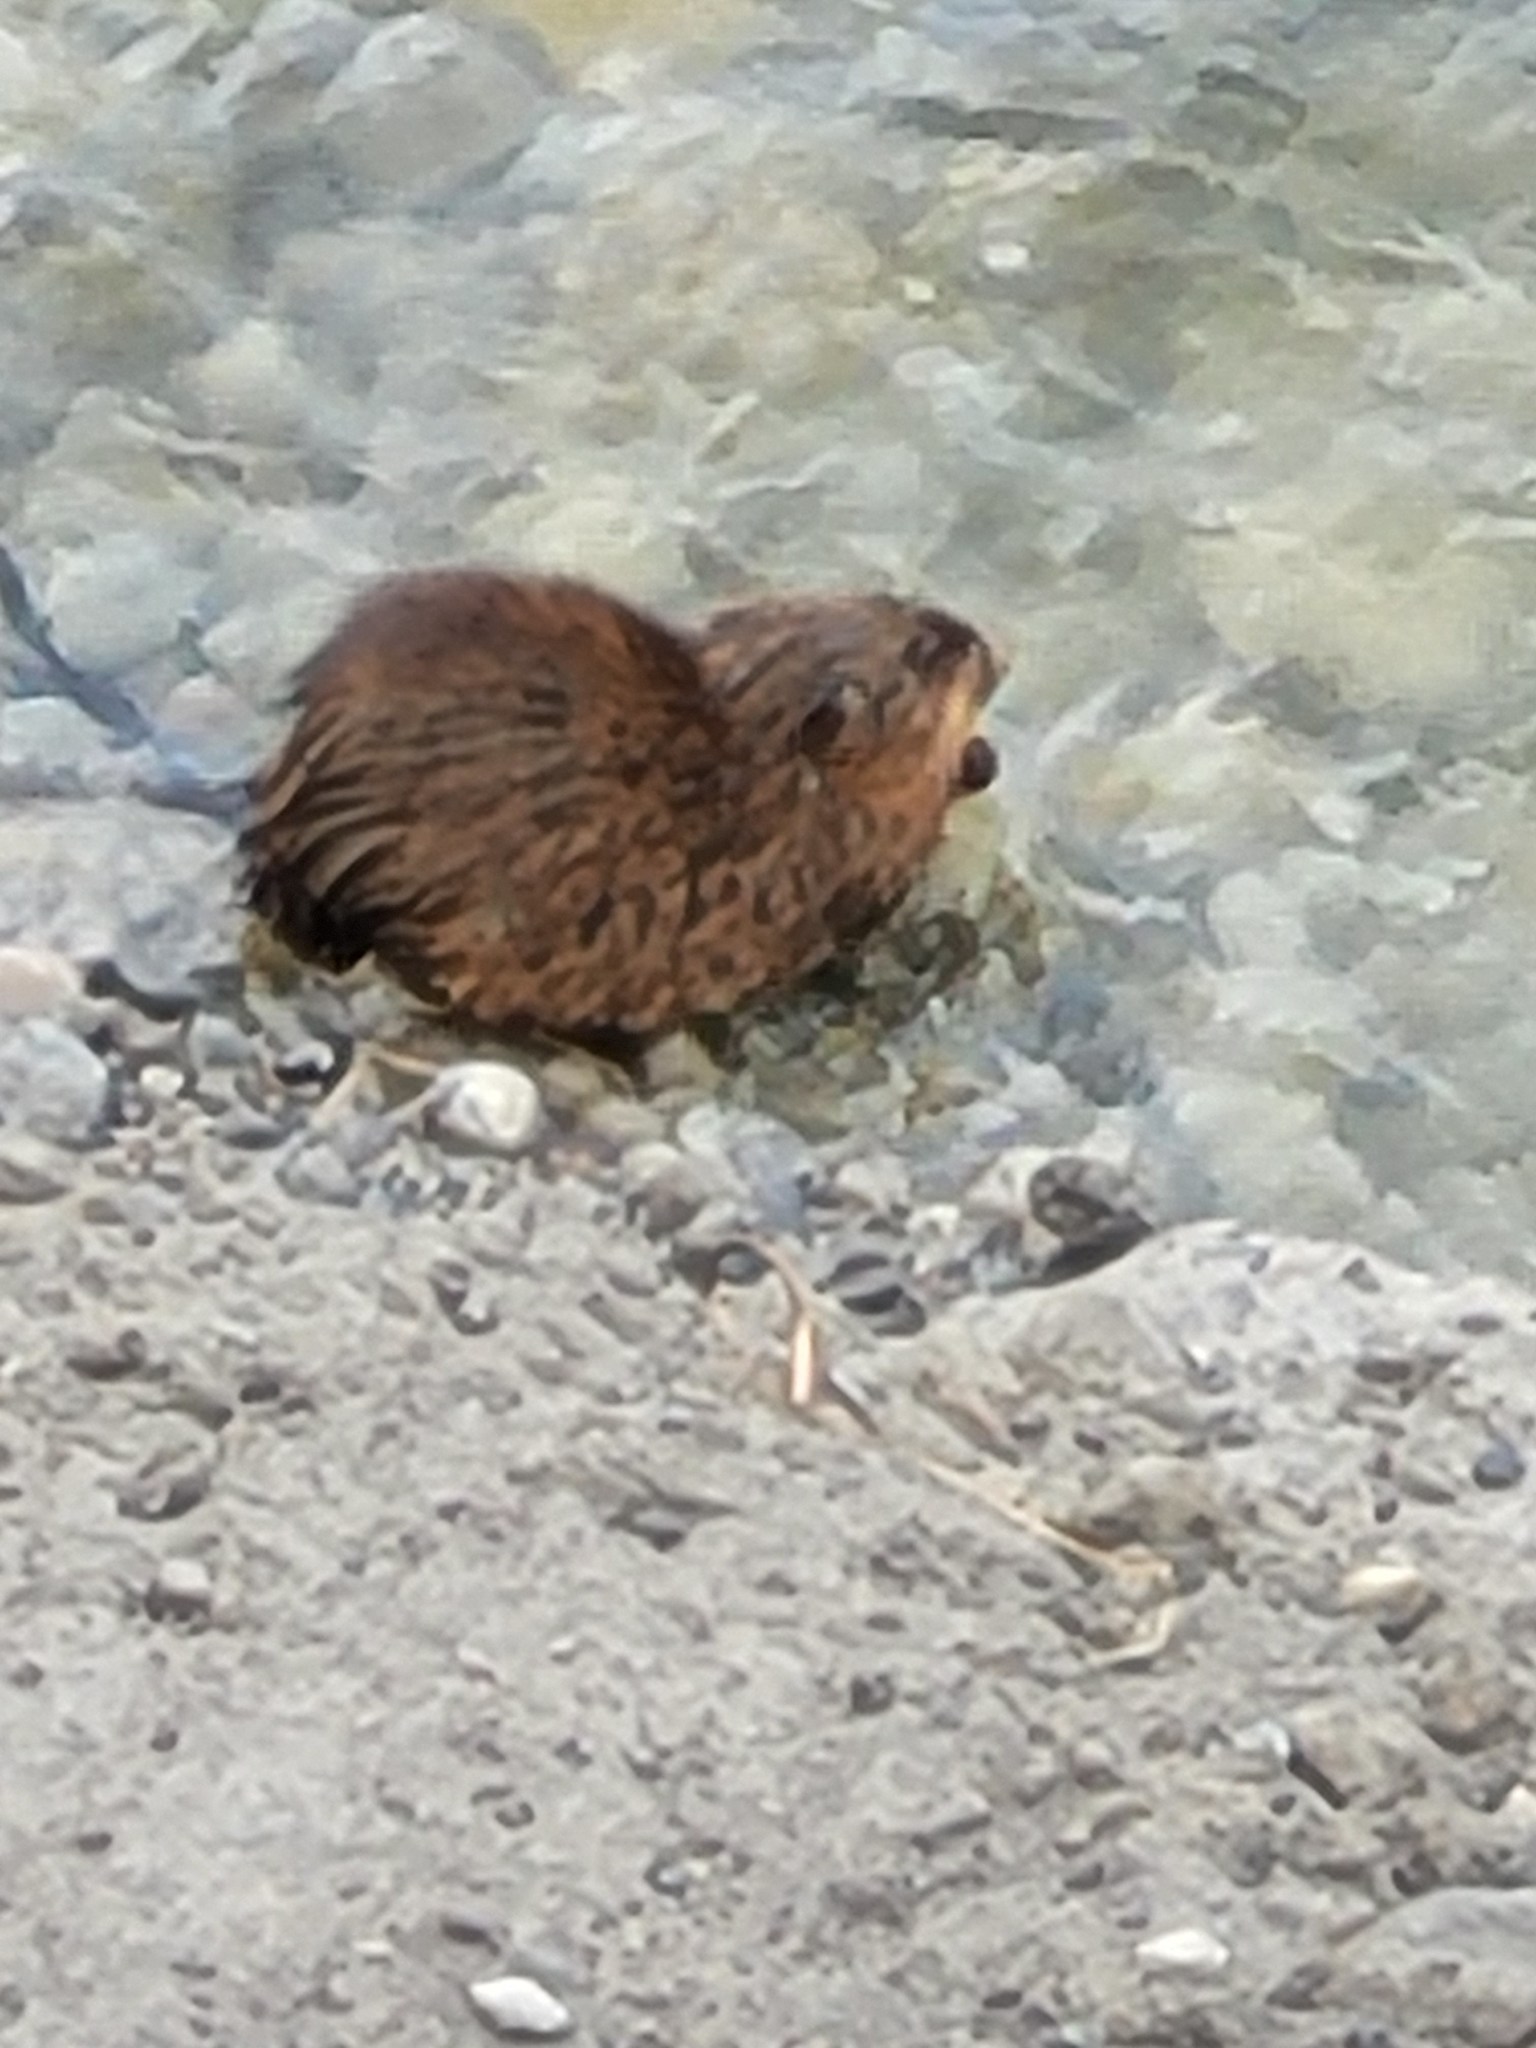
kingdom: Animalia
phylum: Chordata
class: Mammalia
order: Rodentia
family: Cricetidae
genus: Ondatra
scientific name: Ondatra zibethicus
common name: Muskrat
